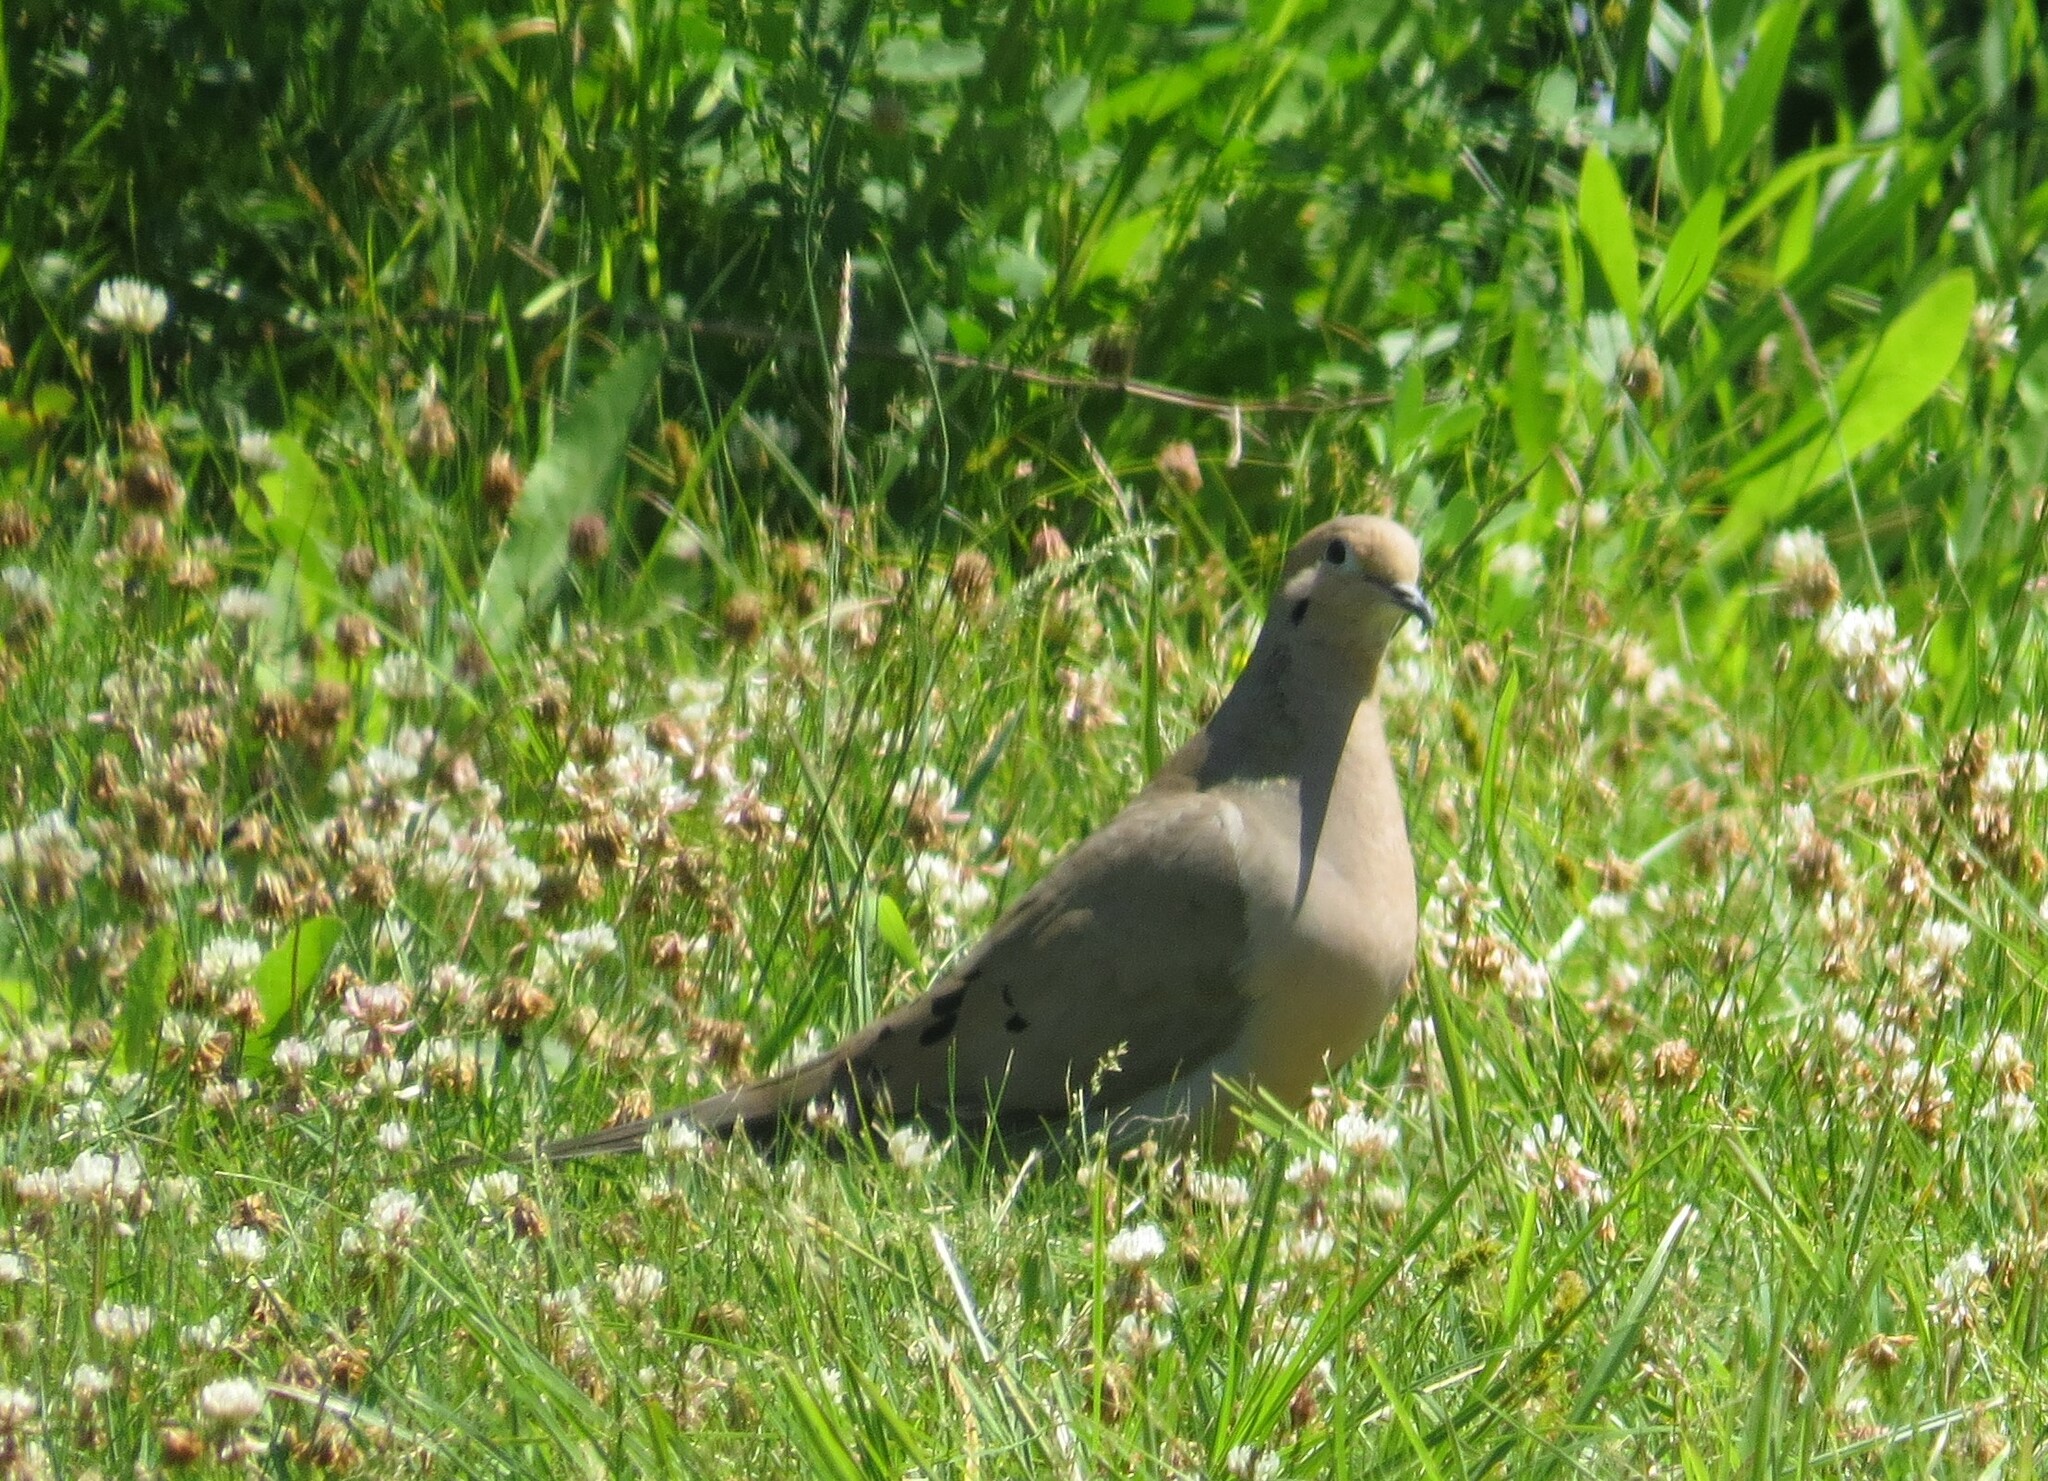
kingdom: Animalia
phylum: Chordata
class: Aves
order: Columbiformes
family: Columbidae
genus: Zenaida
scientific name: Zenaida macroura
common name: Mourning dove
